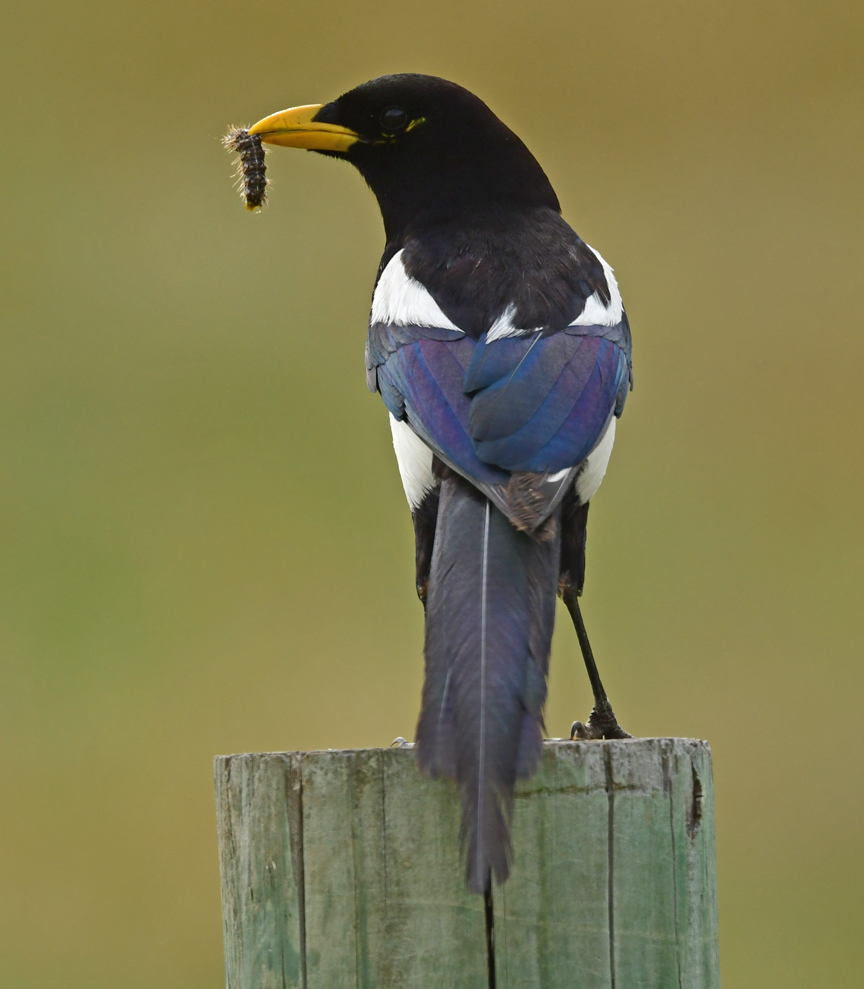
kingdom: Animalia
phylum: Chordata
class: Aves
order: Passeriformes
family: Corvidae
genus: Pica
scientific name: Pica nuttalli
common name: Yellow-billed magpie
